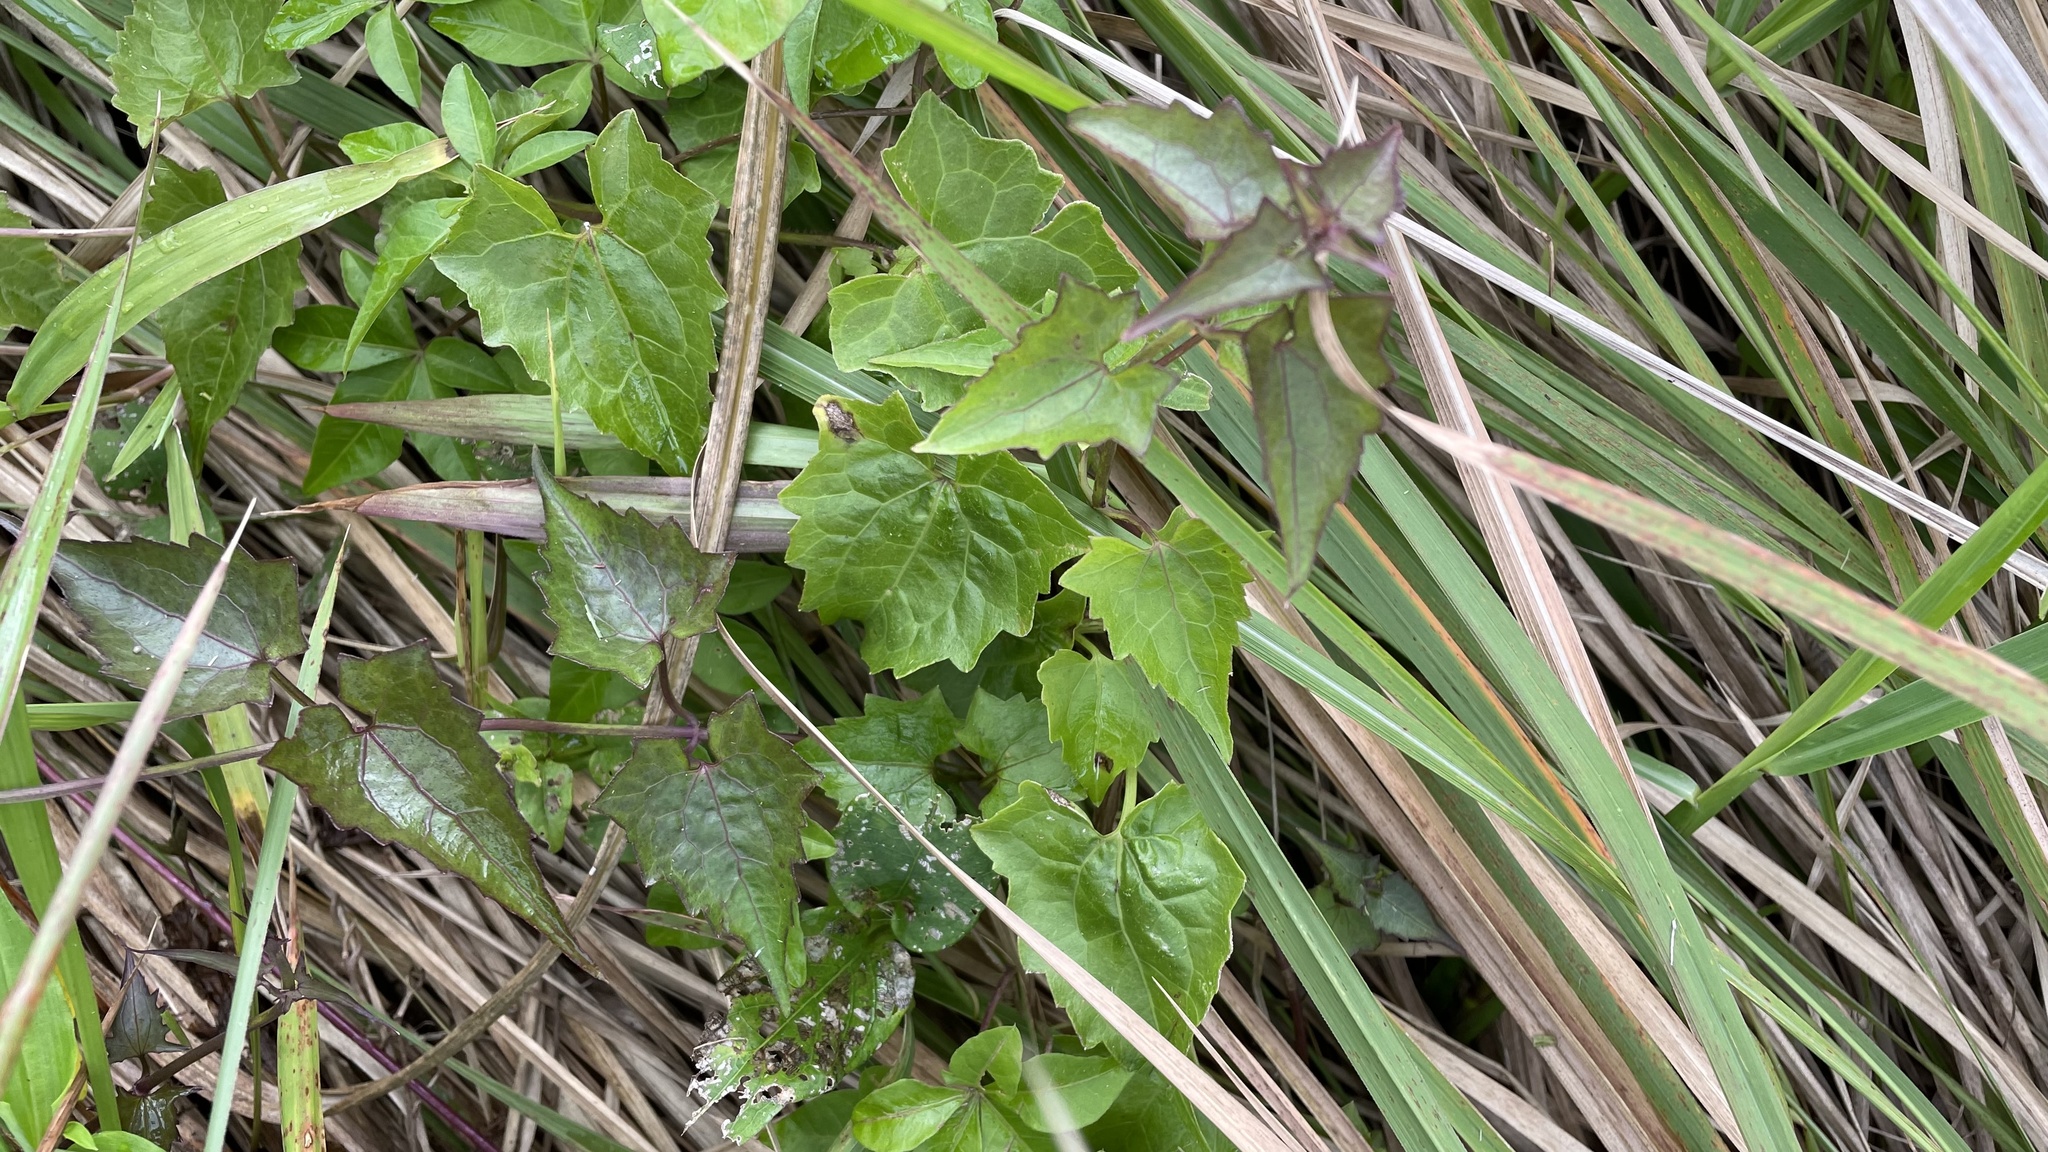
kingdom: Plantae
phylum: Tracheophyta
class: Magnoliopsida
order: Asterales
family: Asteraceae
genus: Mikania
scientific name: Mikania micrantha
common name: Mile-a-minute
